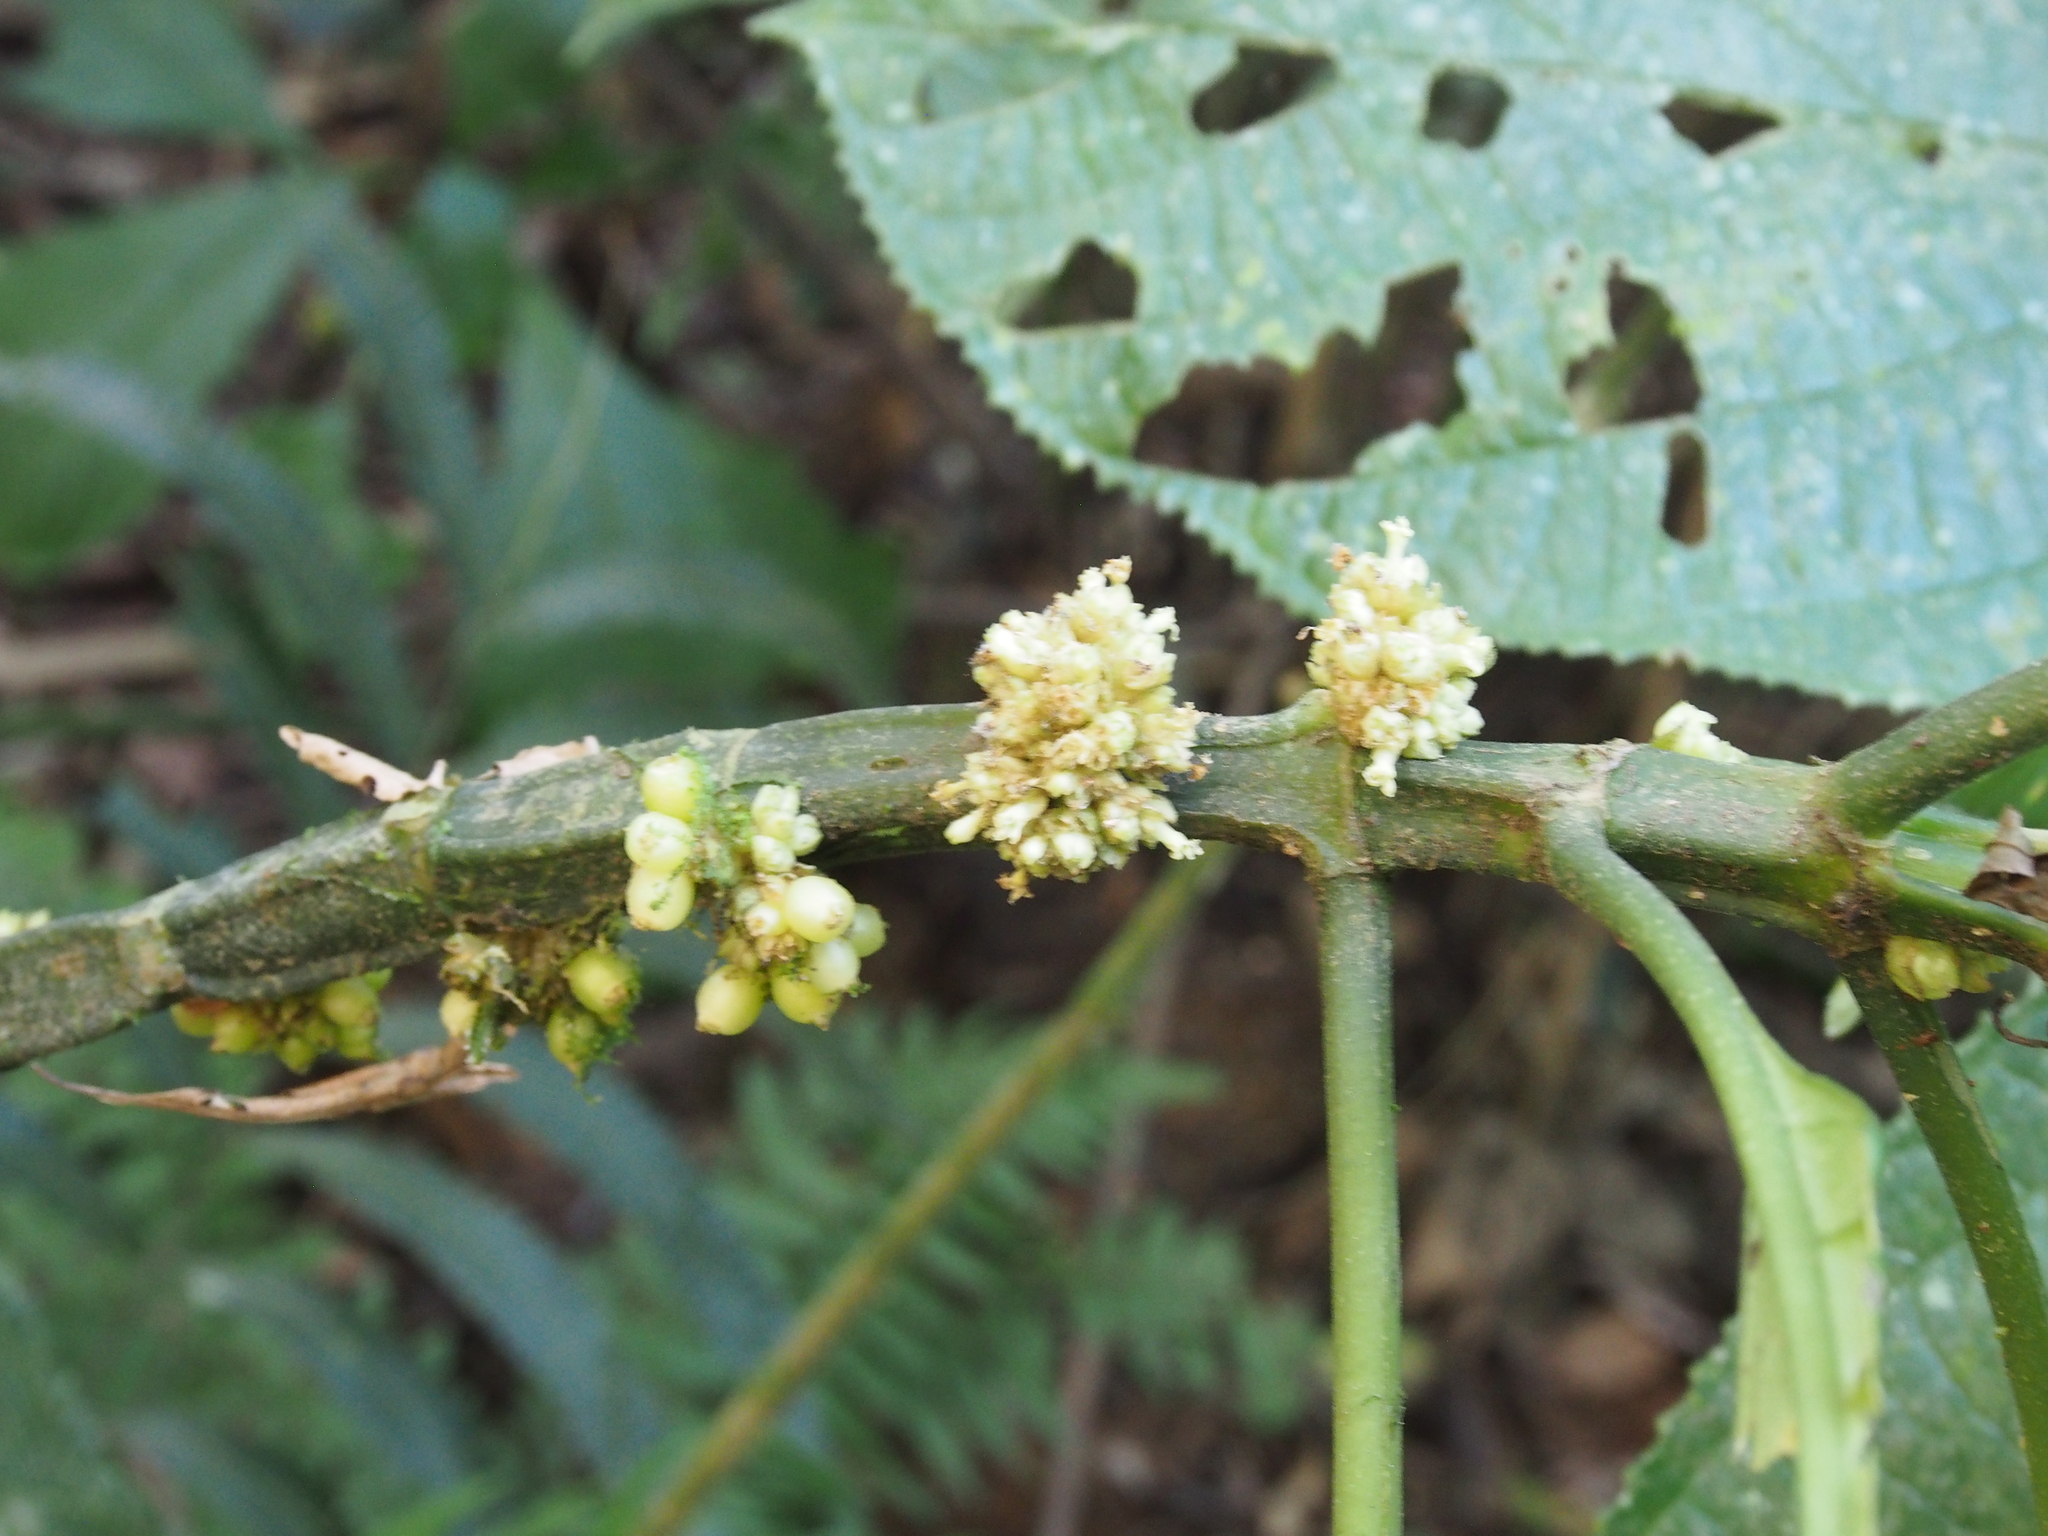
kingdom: Plantae
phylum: Tracheophyta
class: Magnoliopsida
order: Gentianales
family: Rubiaceae
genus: Notopleura
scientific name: Notopleura capitata
